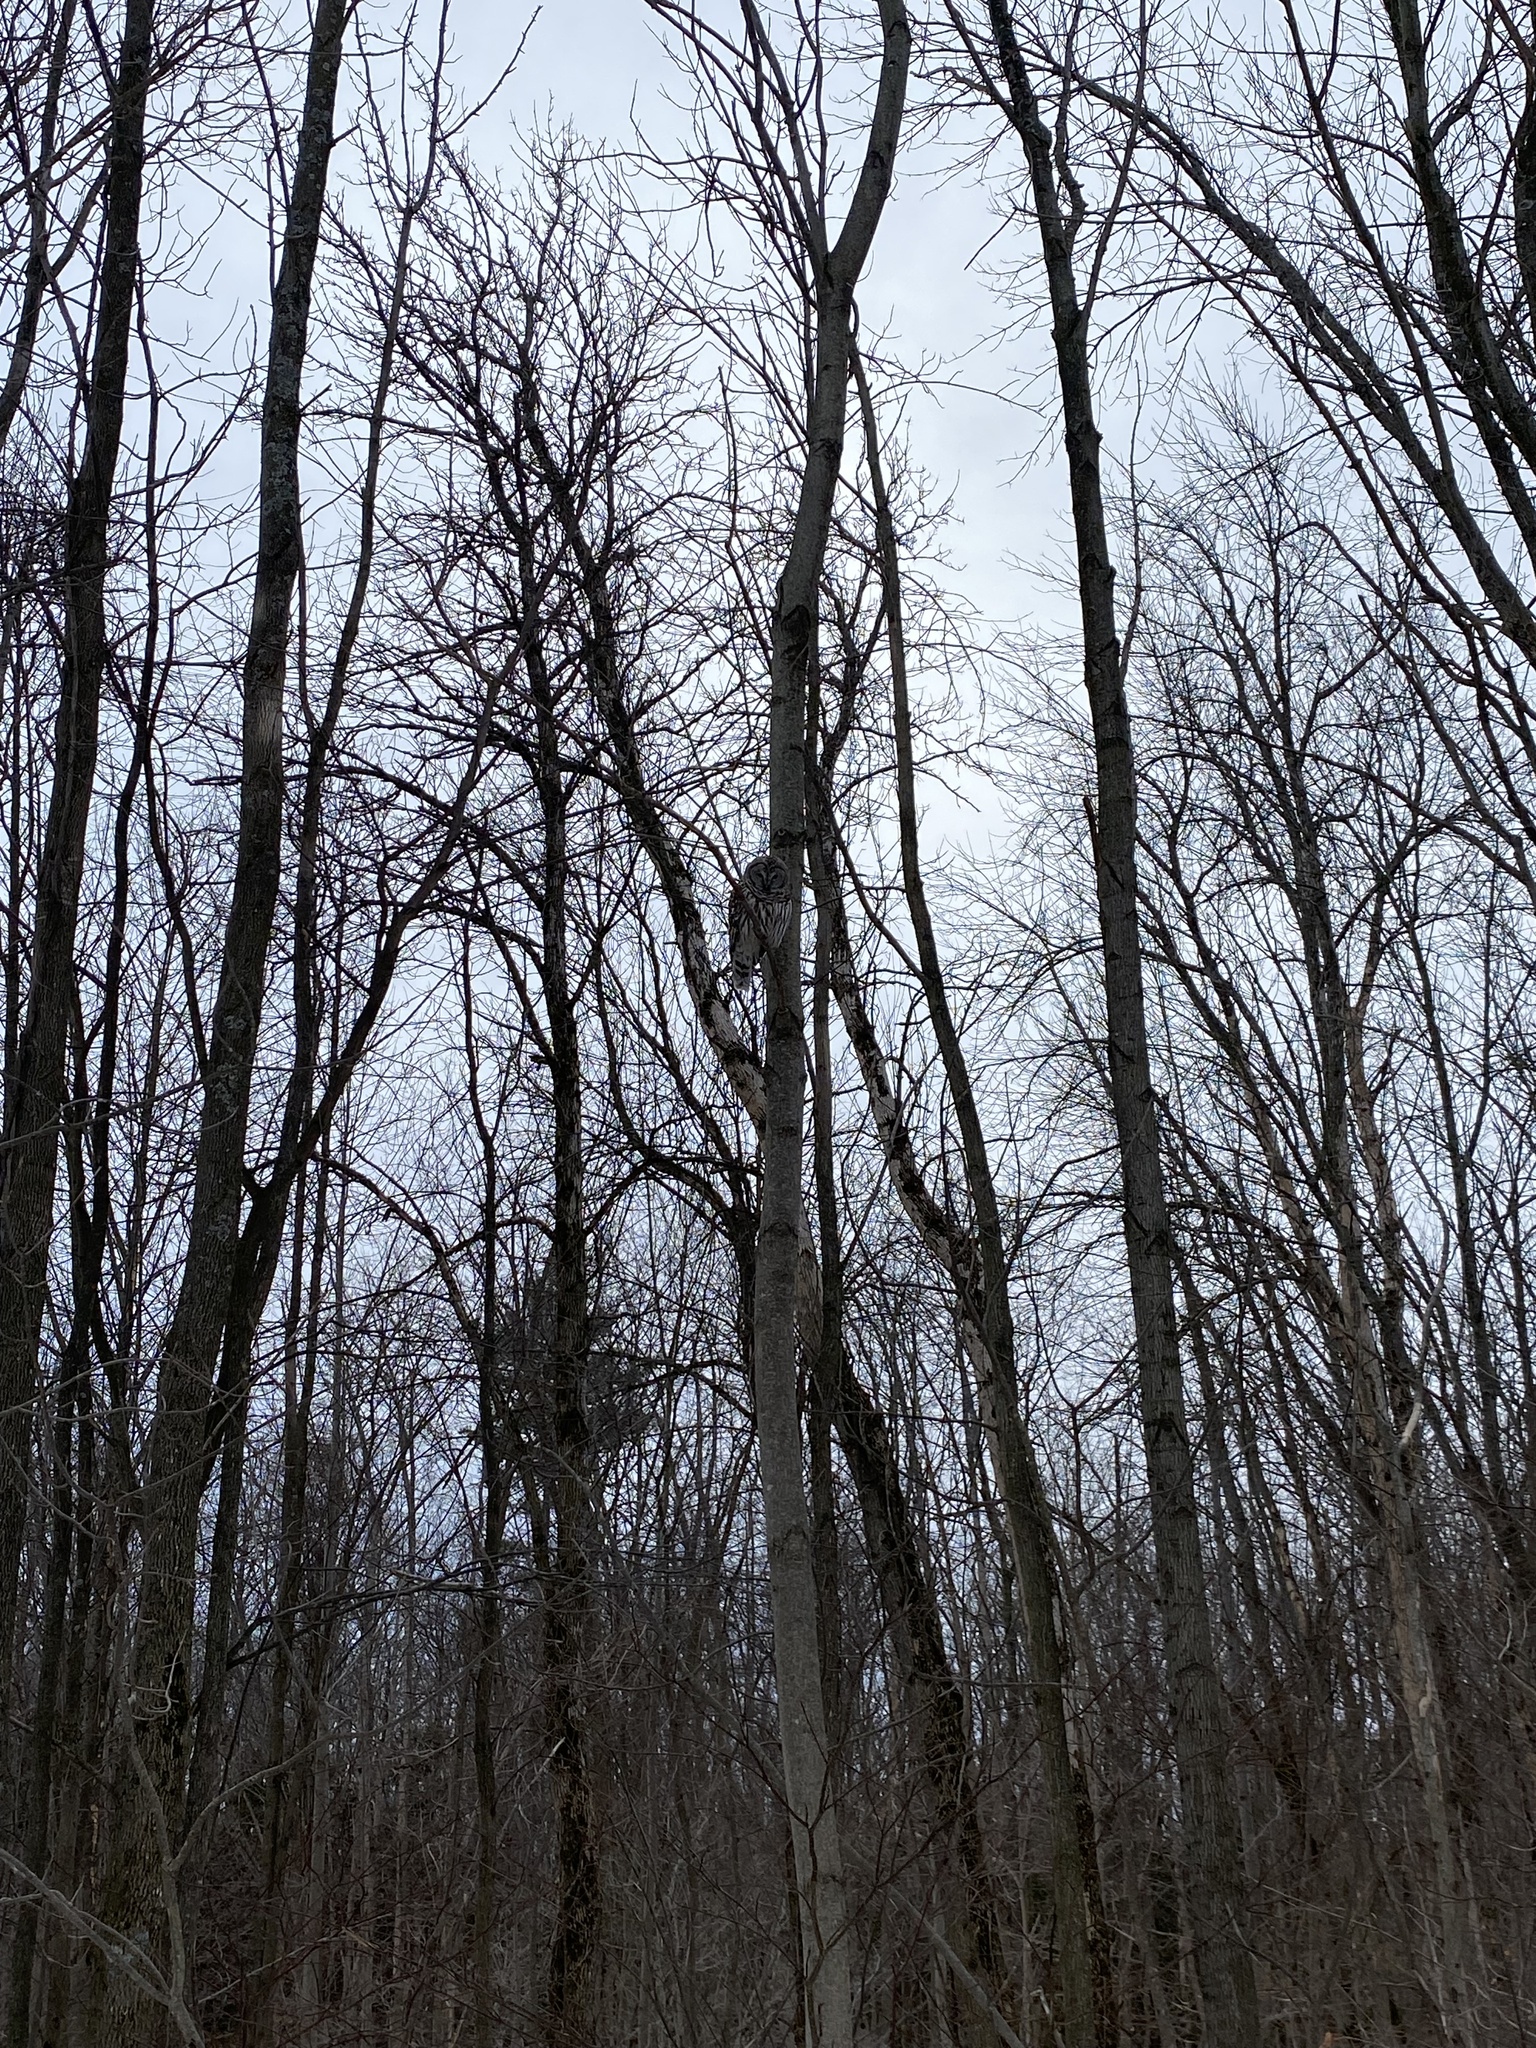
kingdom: Animalia
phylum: Chordata
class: Aves
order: Strigiformes
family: Strigidae
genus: Strix
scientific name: Strix varia
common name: Barred owl
